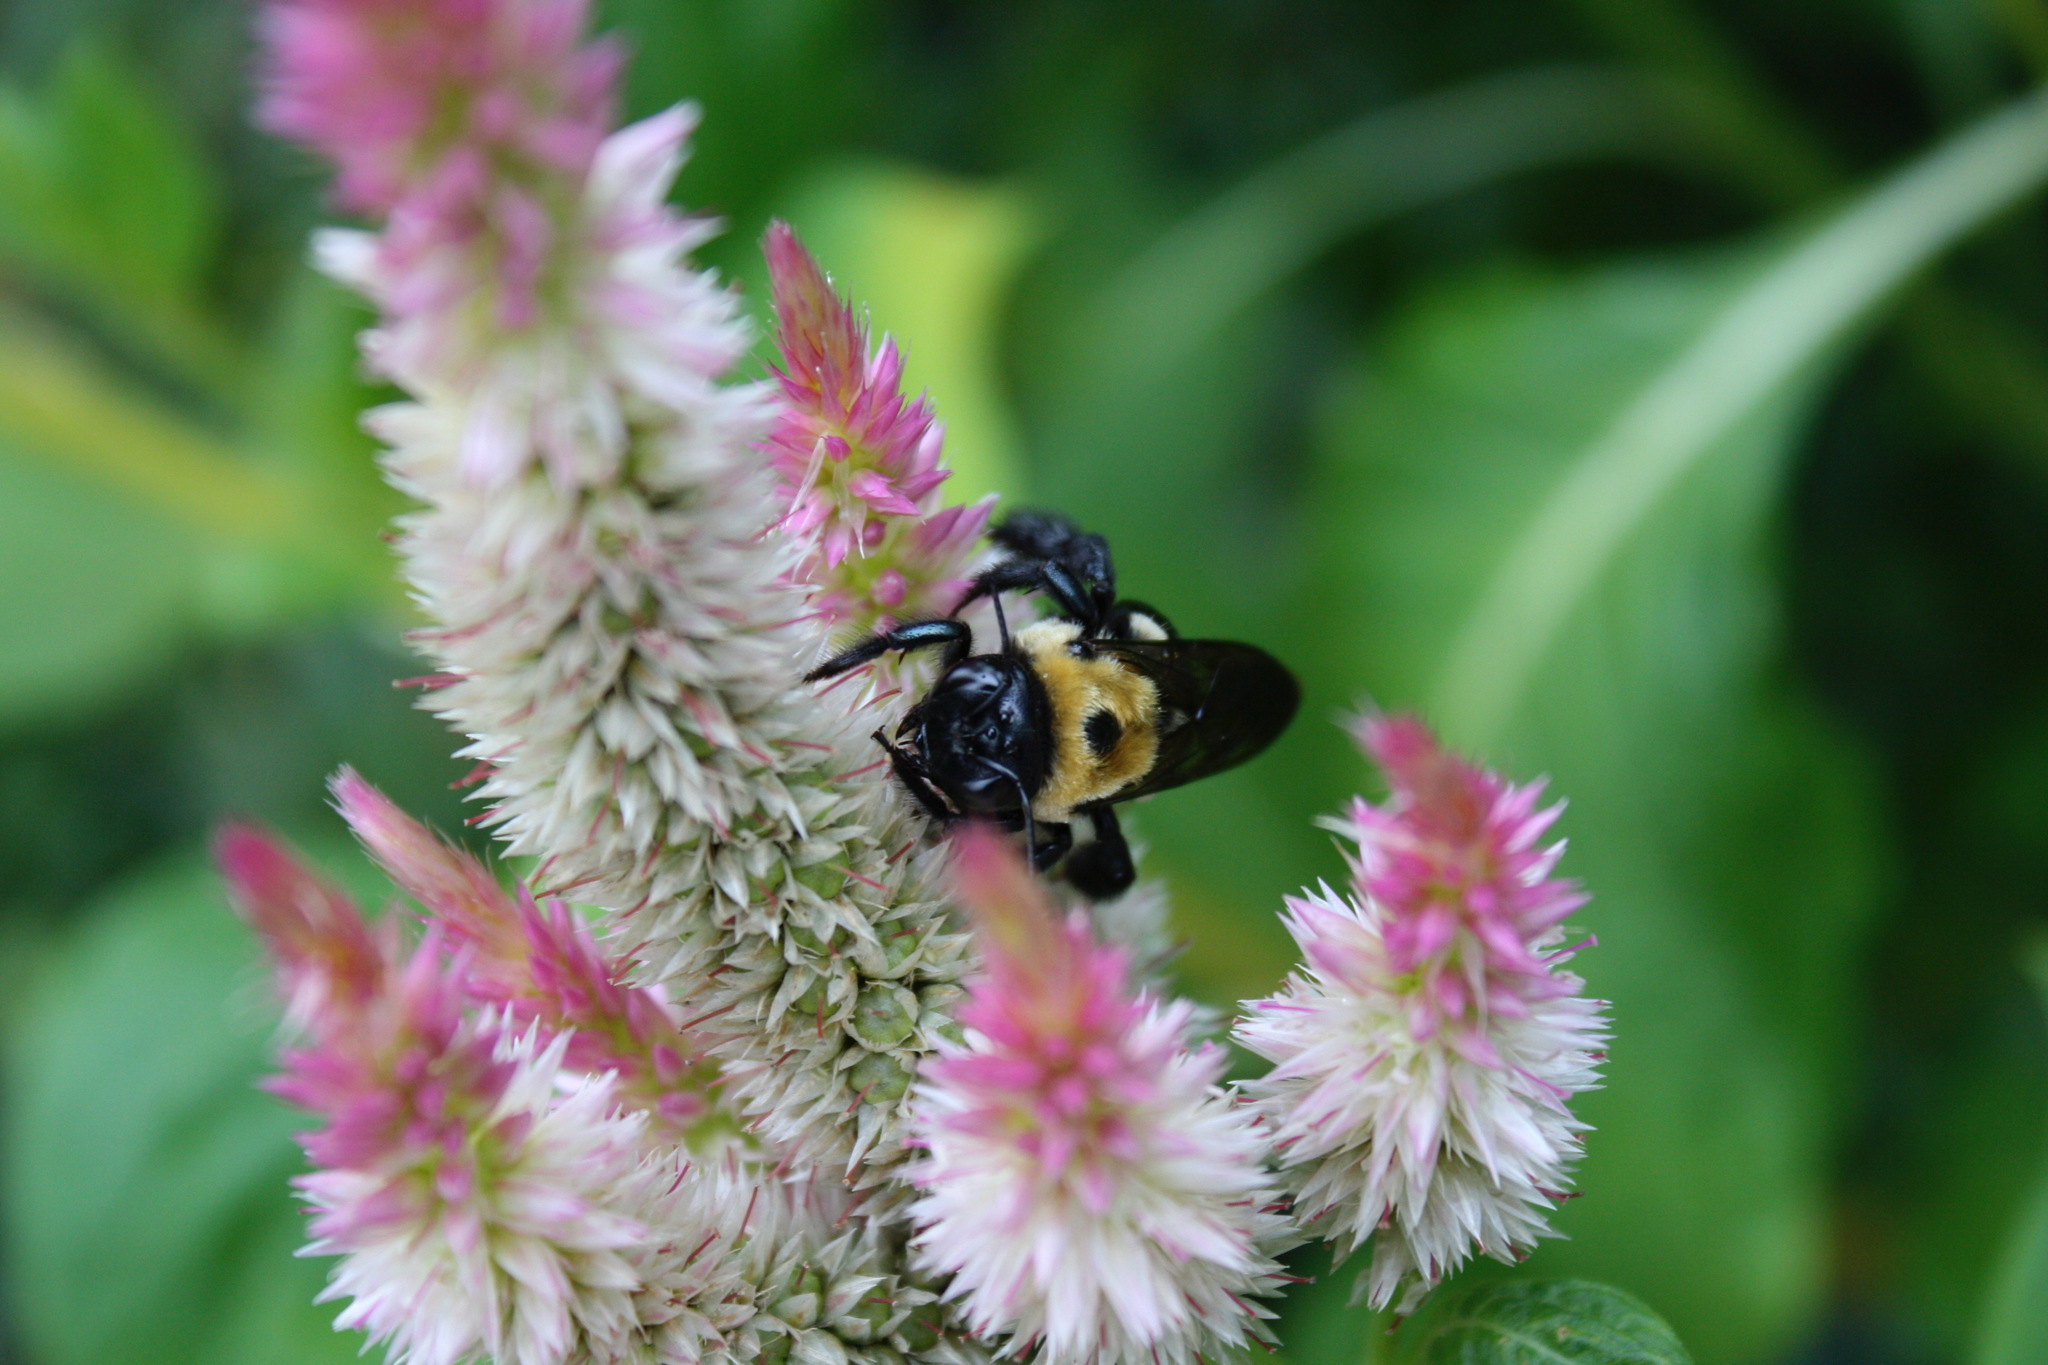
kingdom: Animalia
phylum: Arthropoda
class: Insecta
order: Hymenoptera
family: Apidae
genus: Xylocopa
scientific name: Xylocopa virginica
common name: Carpenter bee
